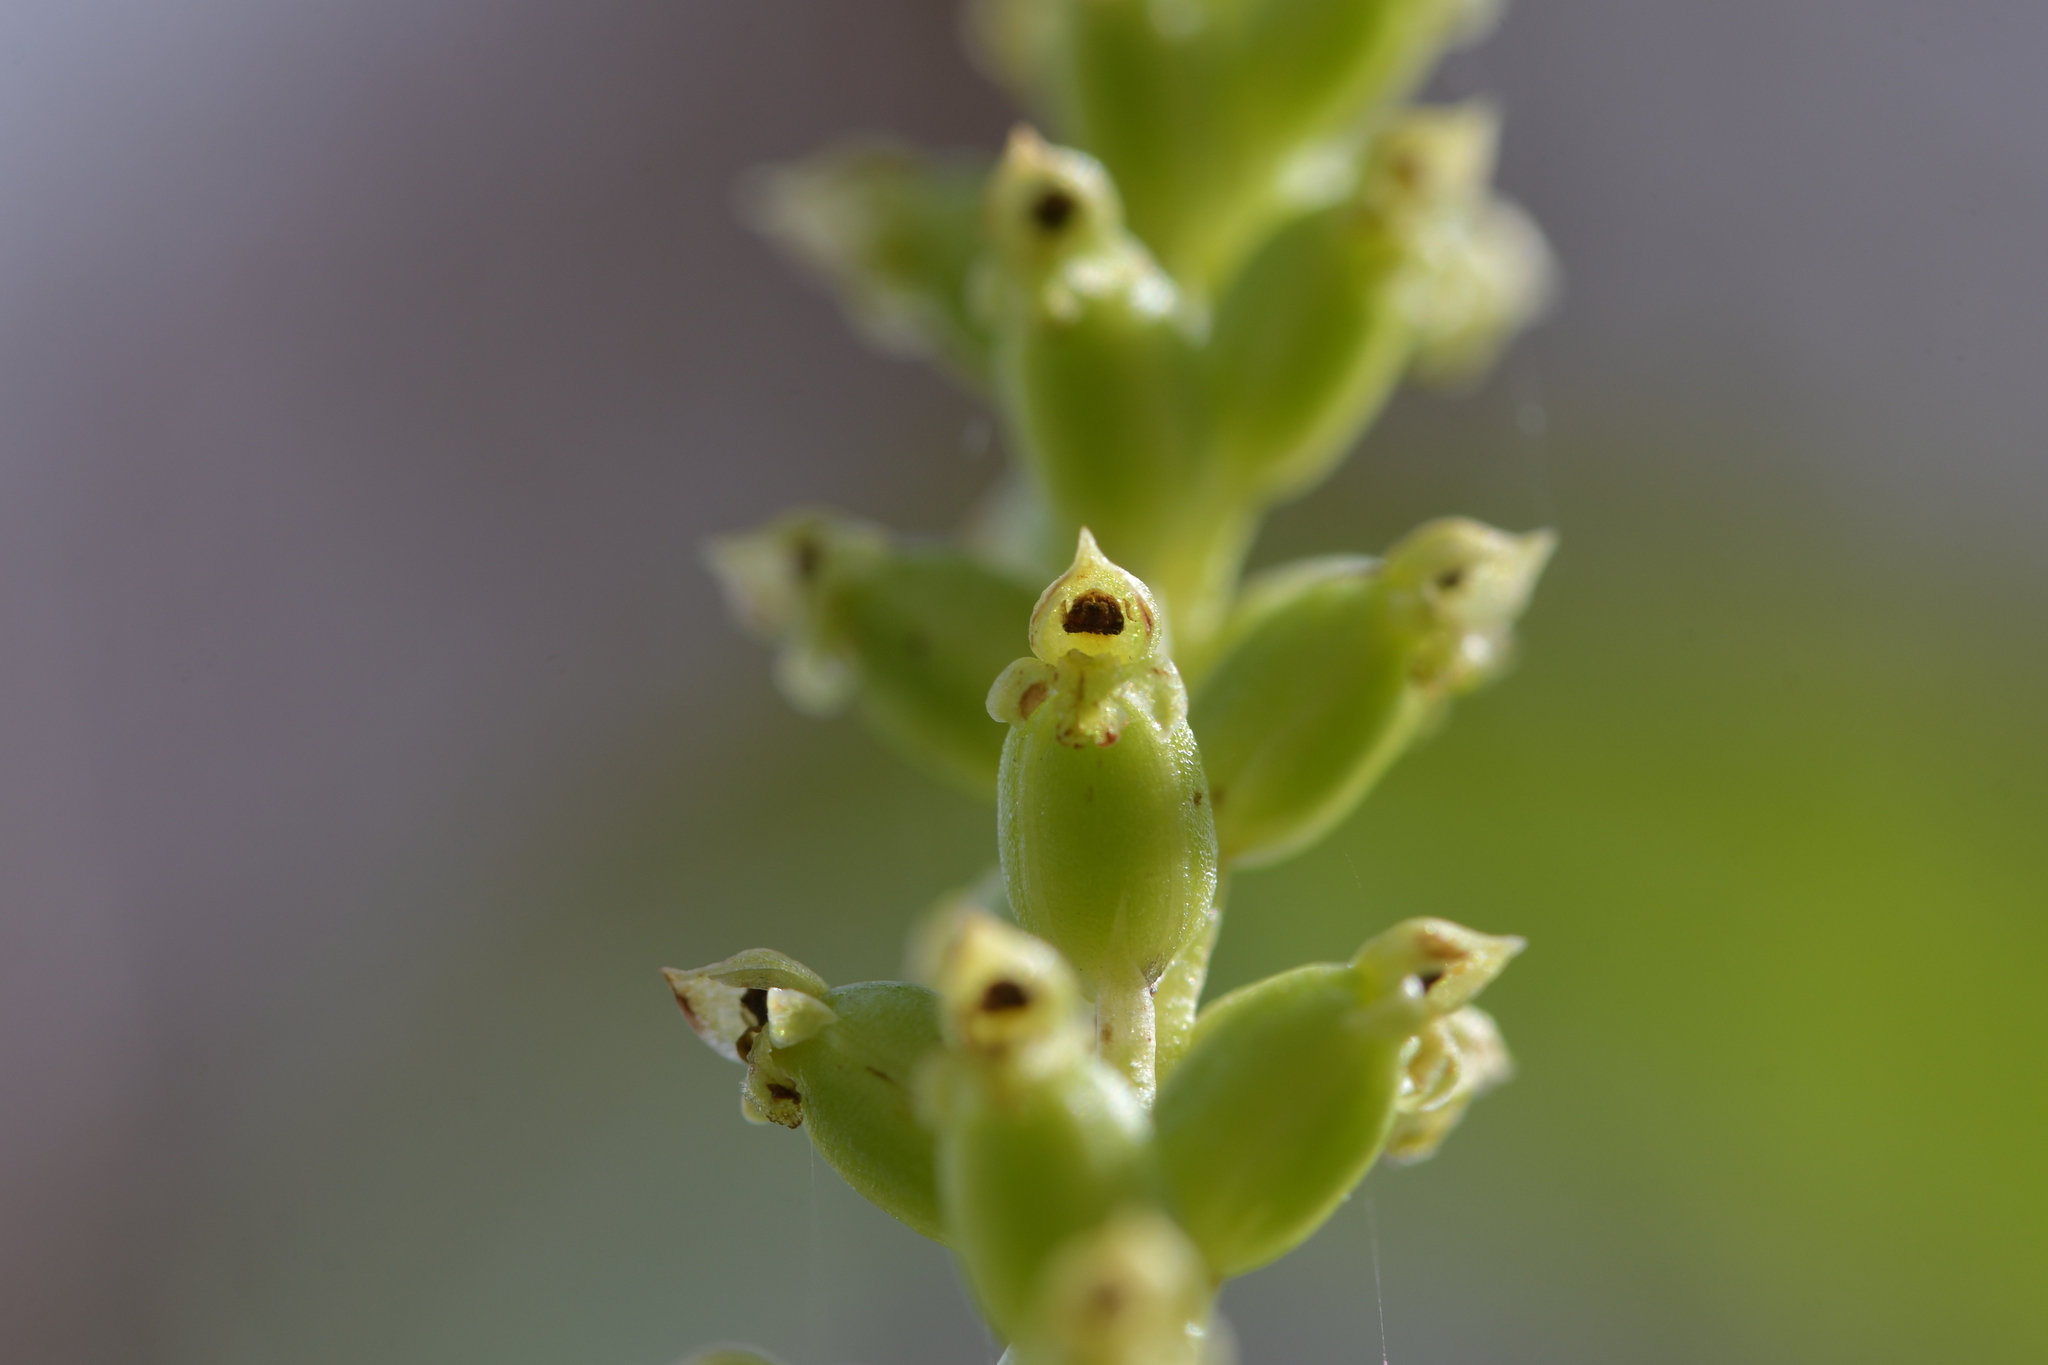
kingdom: Plantae
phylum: Tracheophyta
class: Liliopsida
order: Asparagales
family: Orchidaceae
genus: Microtis
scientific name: Microtis unifolia
